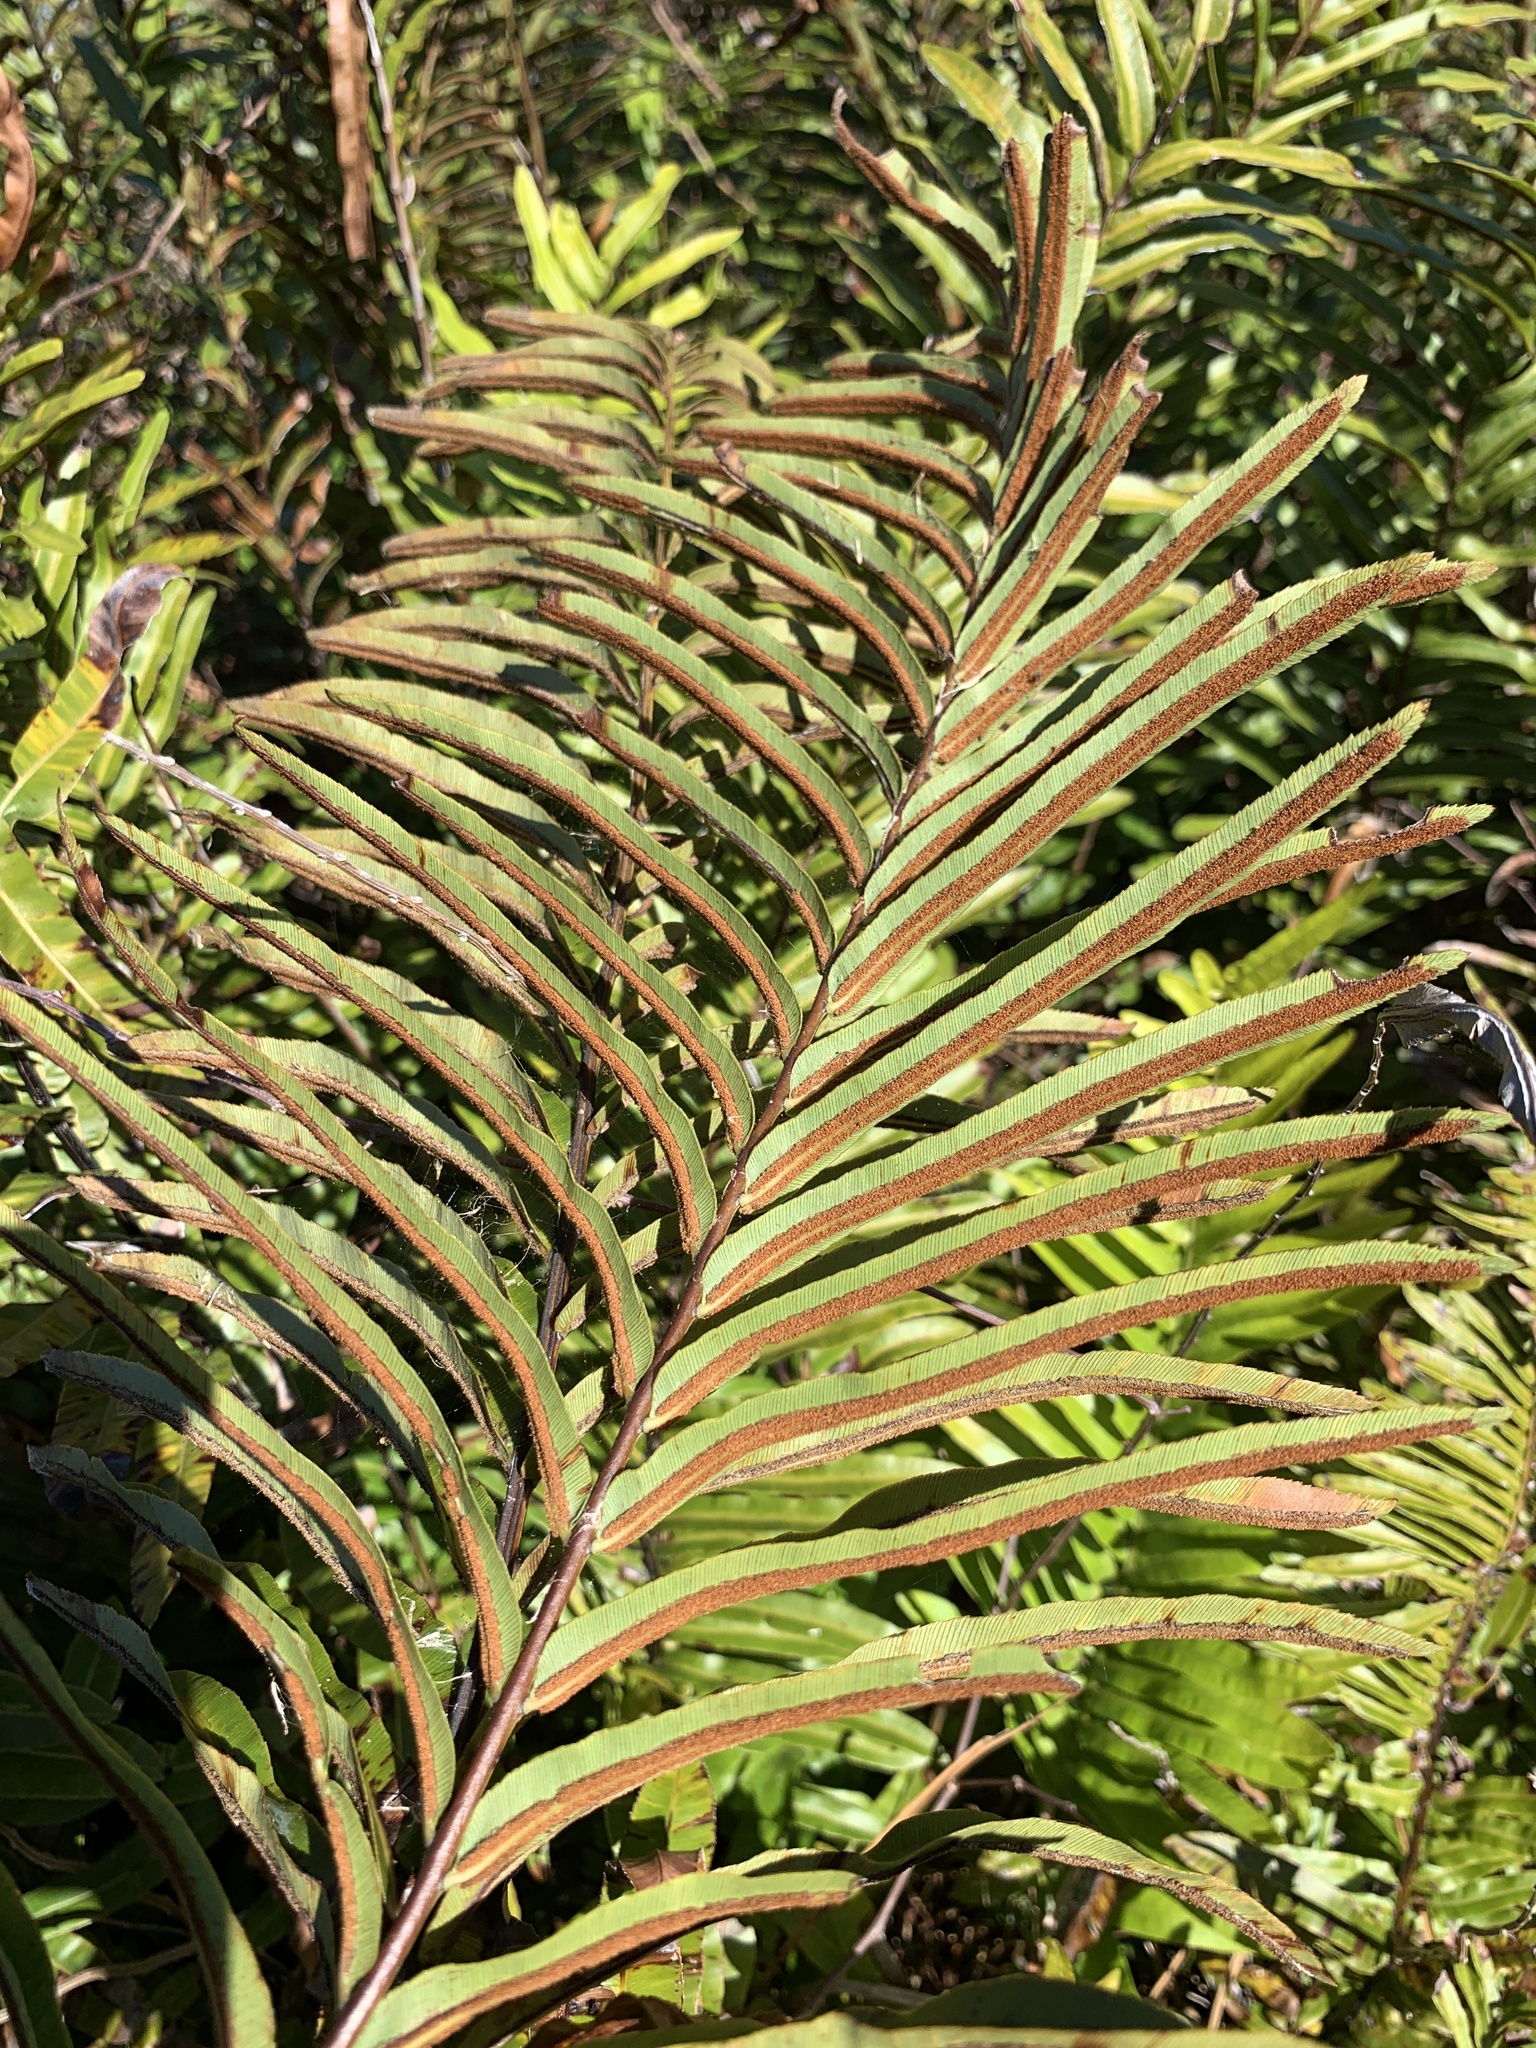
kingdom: Plantae
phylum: Tracheophyta
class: Polypodiopsida
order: Polypodiales
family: Blechnaceae
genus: Telmatoblechnum
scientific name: Telmatoblechnum serrulatum
